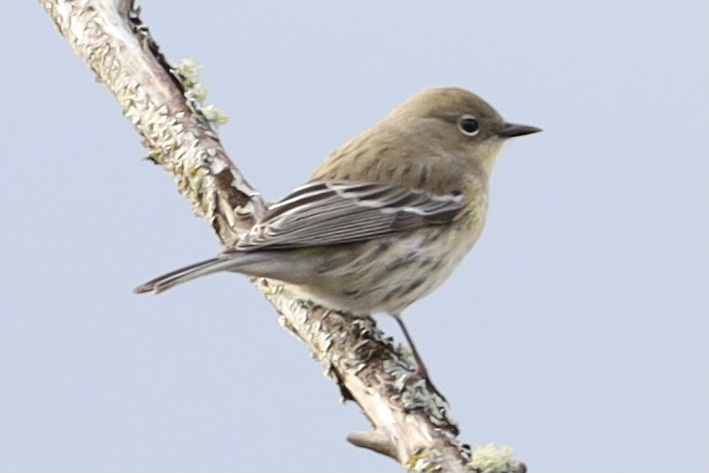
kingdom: Animalia
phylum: Chordata
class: Aves
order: Passeriformes
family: Parulidae
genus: Setophaga
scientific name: Setophaga coronata
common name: Myrtle warbler
